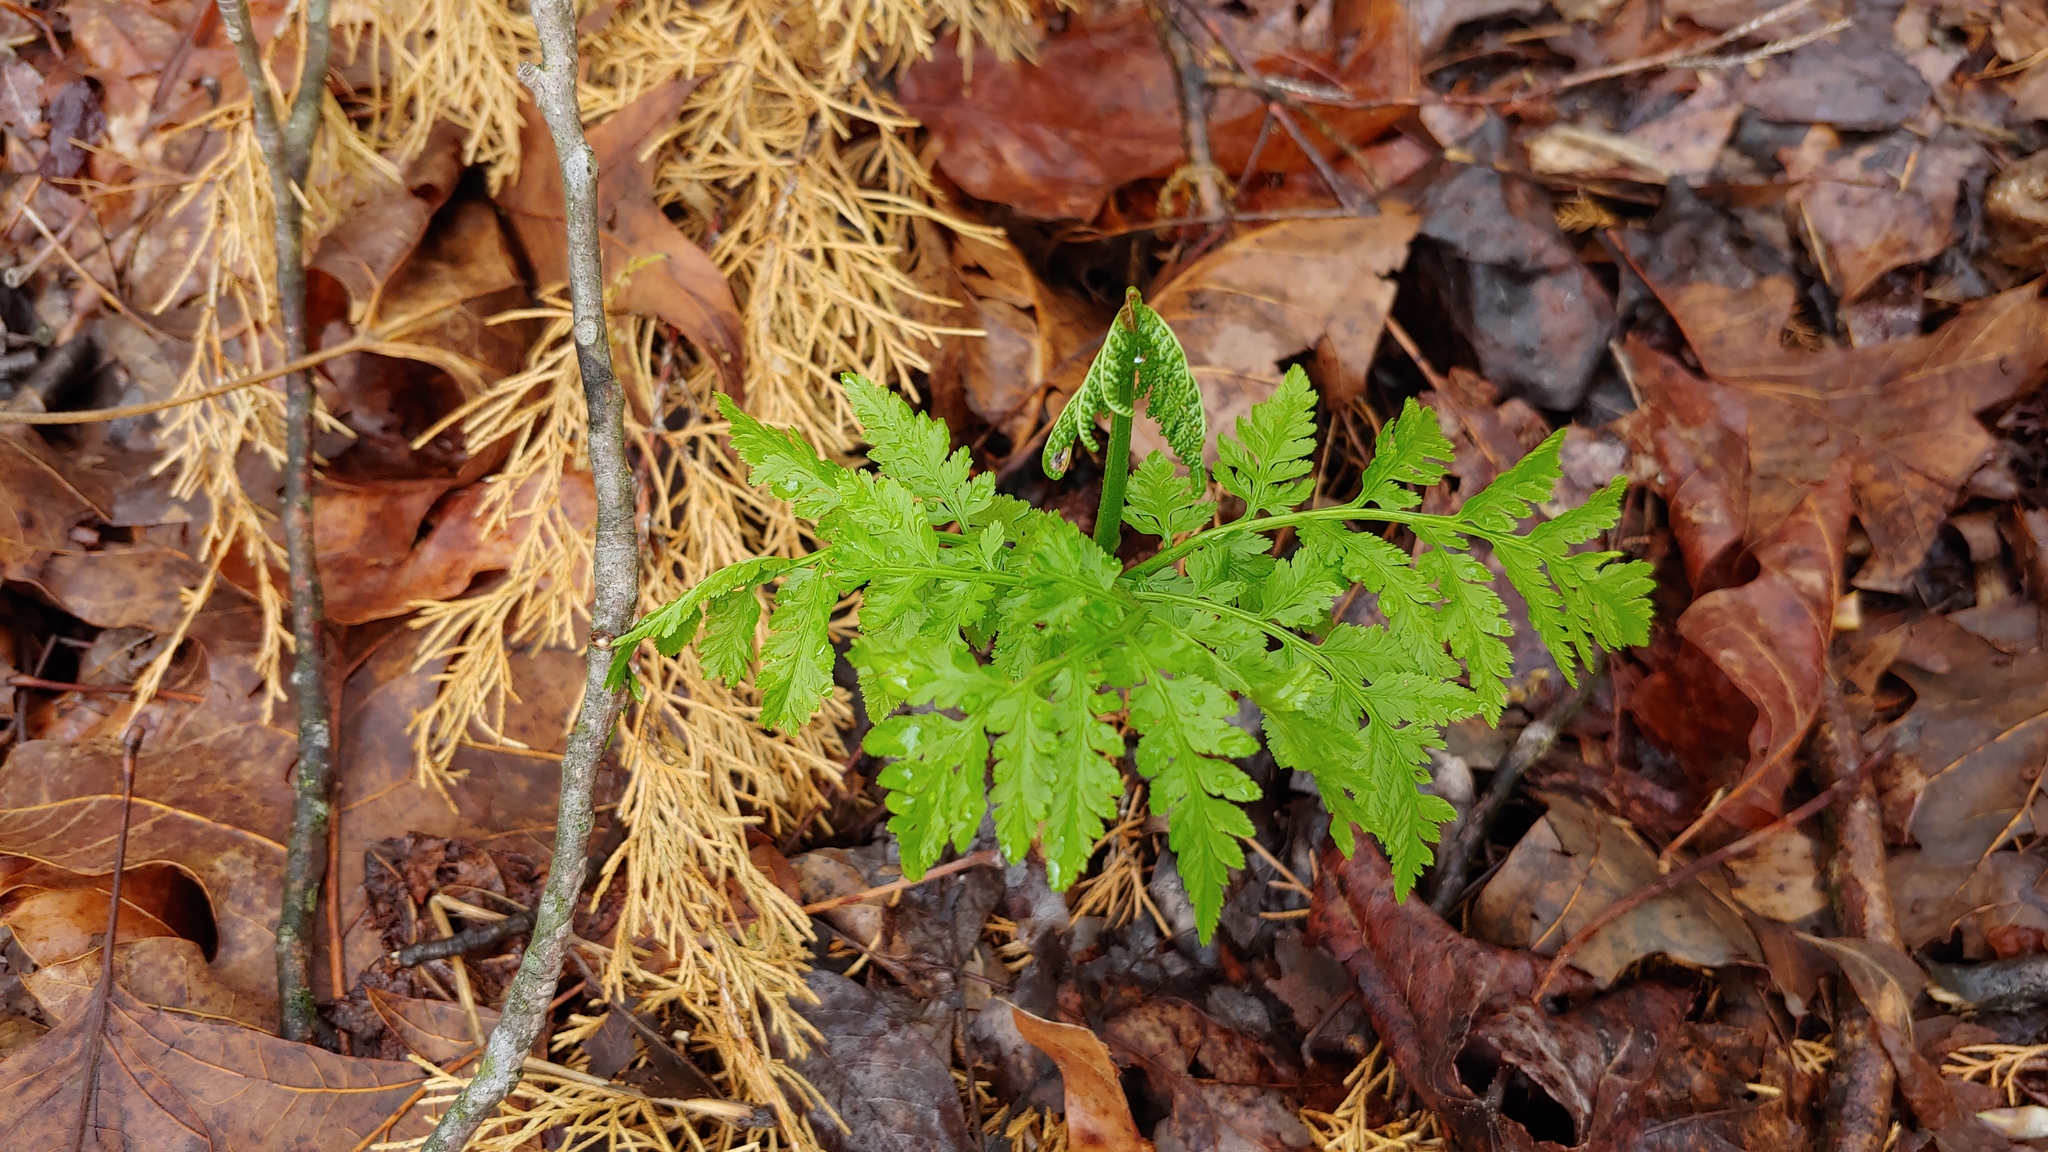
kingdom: Plantae
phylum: Tracheophyta
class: Polypodiopsida
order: Ophioglossales
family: Ophioglossaceae
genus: Botrypus
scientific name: Botrypus virginianus
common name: Common grapefern
